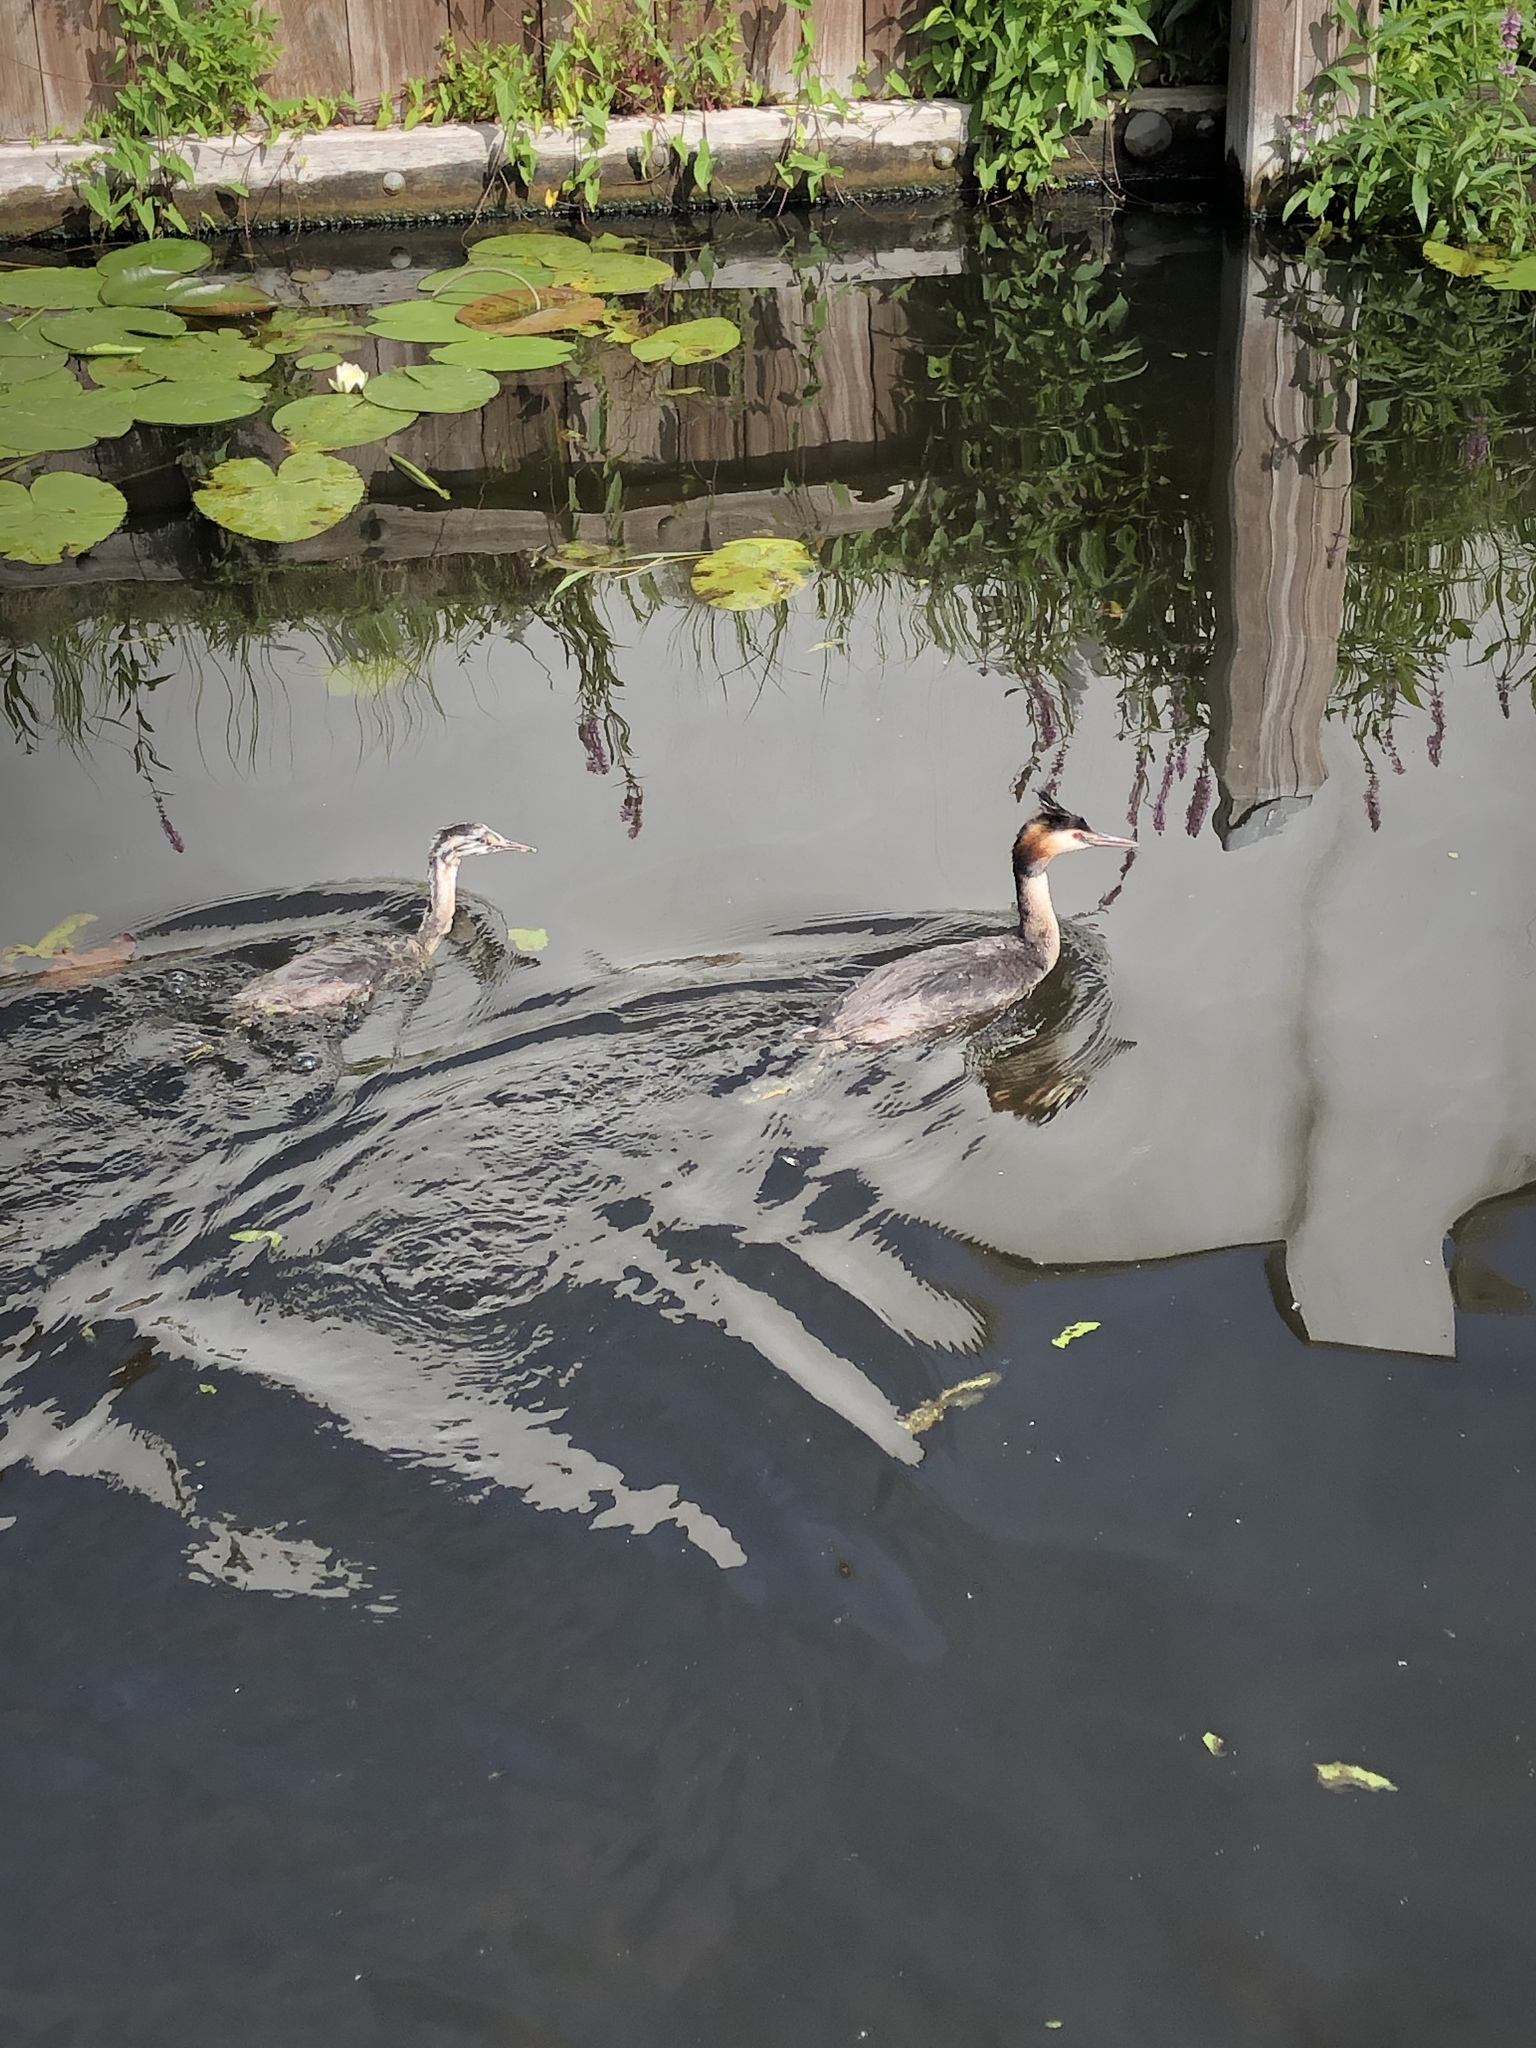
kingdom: Animalia
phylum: Chordata
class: Aves
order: Podicipediformes
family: Podicipedidae
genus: Podiceps
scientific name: Podiceps cristatus
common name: Great crested grebe
